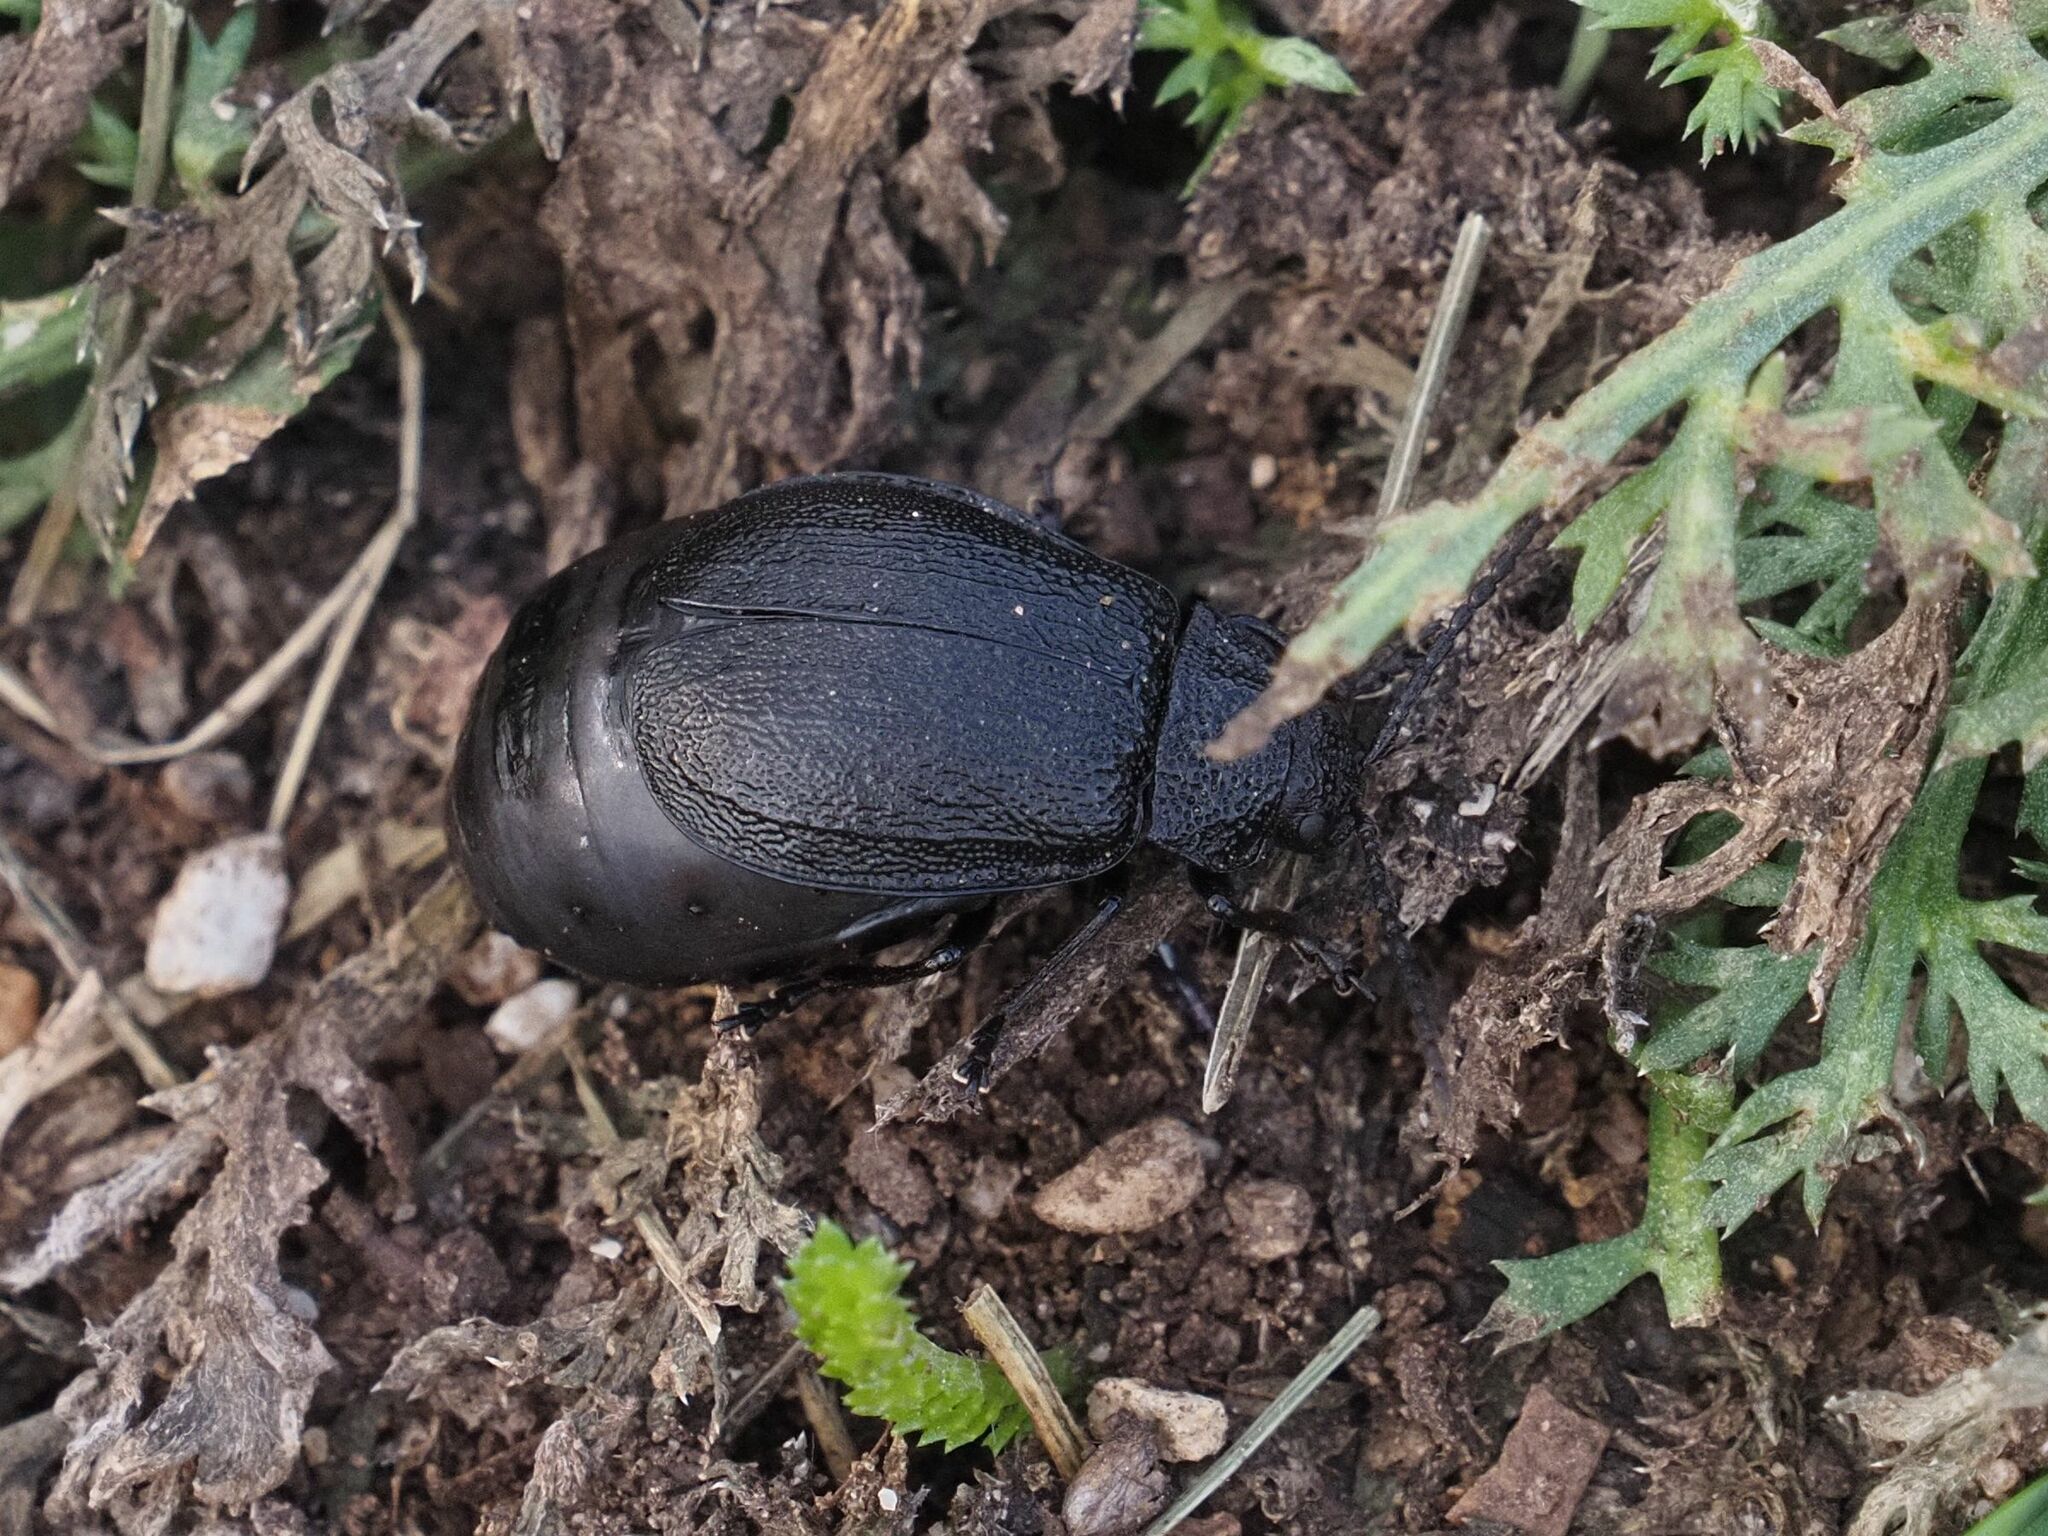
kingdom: Animalia
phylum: Arthropoda
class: Insecta
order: Coleoptera
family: Chrysomelidae
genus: Galeruca
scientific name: Galeruca tanaceti
